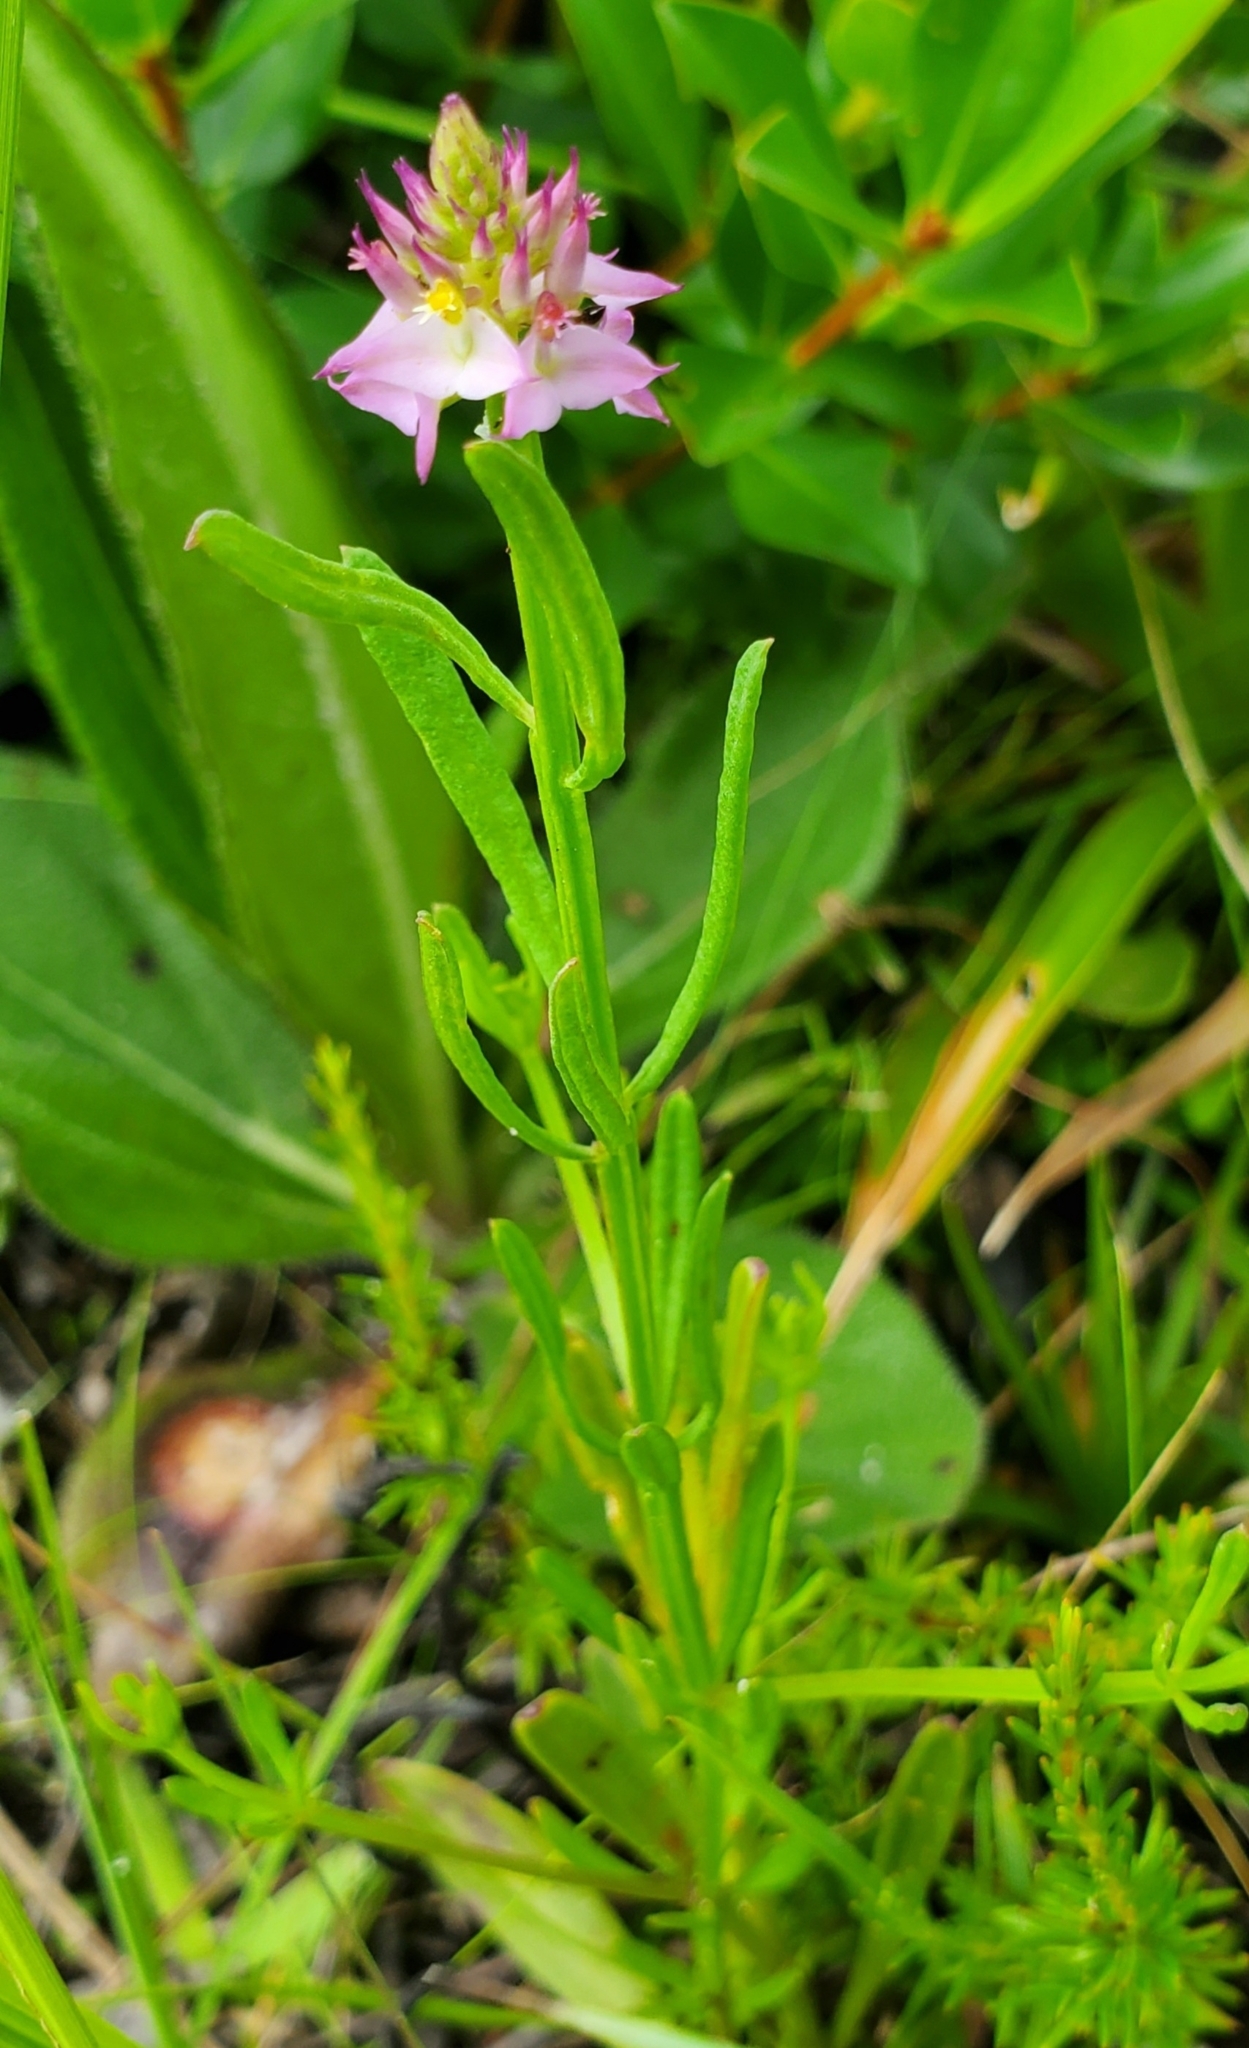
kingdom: Plantae
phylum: Tracheophyta
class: Magnoliopsida
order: Fabales
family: Polygalaceae
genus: Polygala
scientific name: Polygala cruciata
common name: Drumheads
